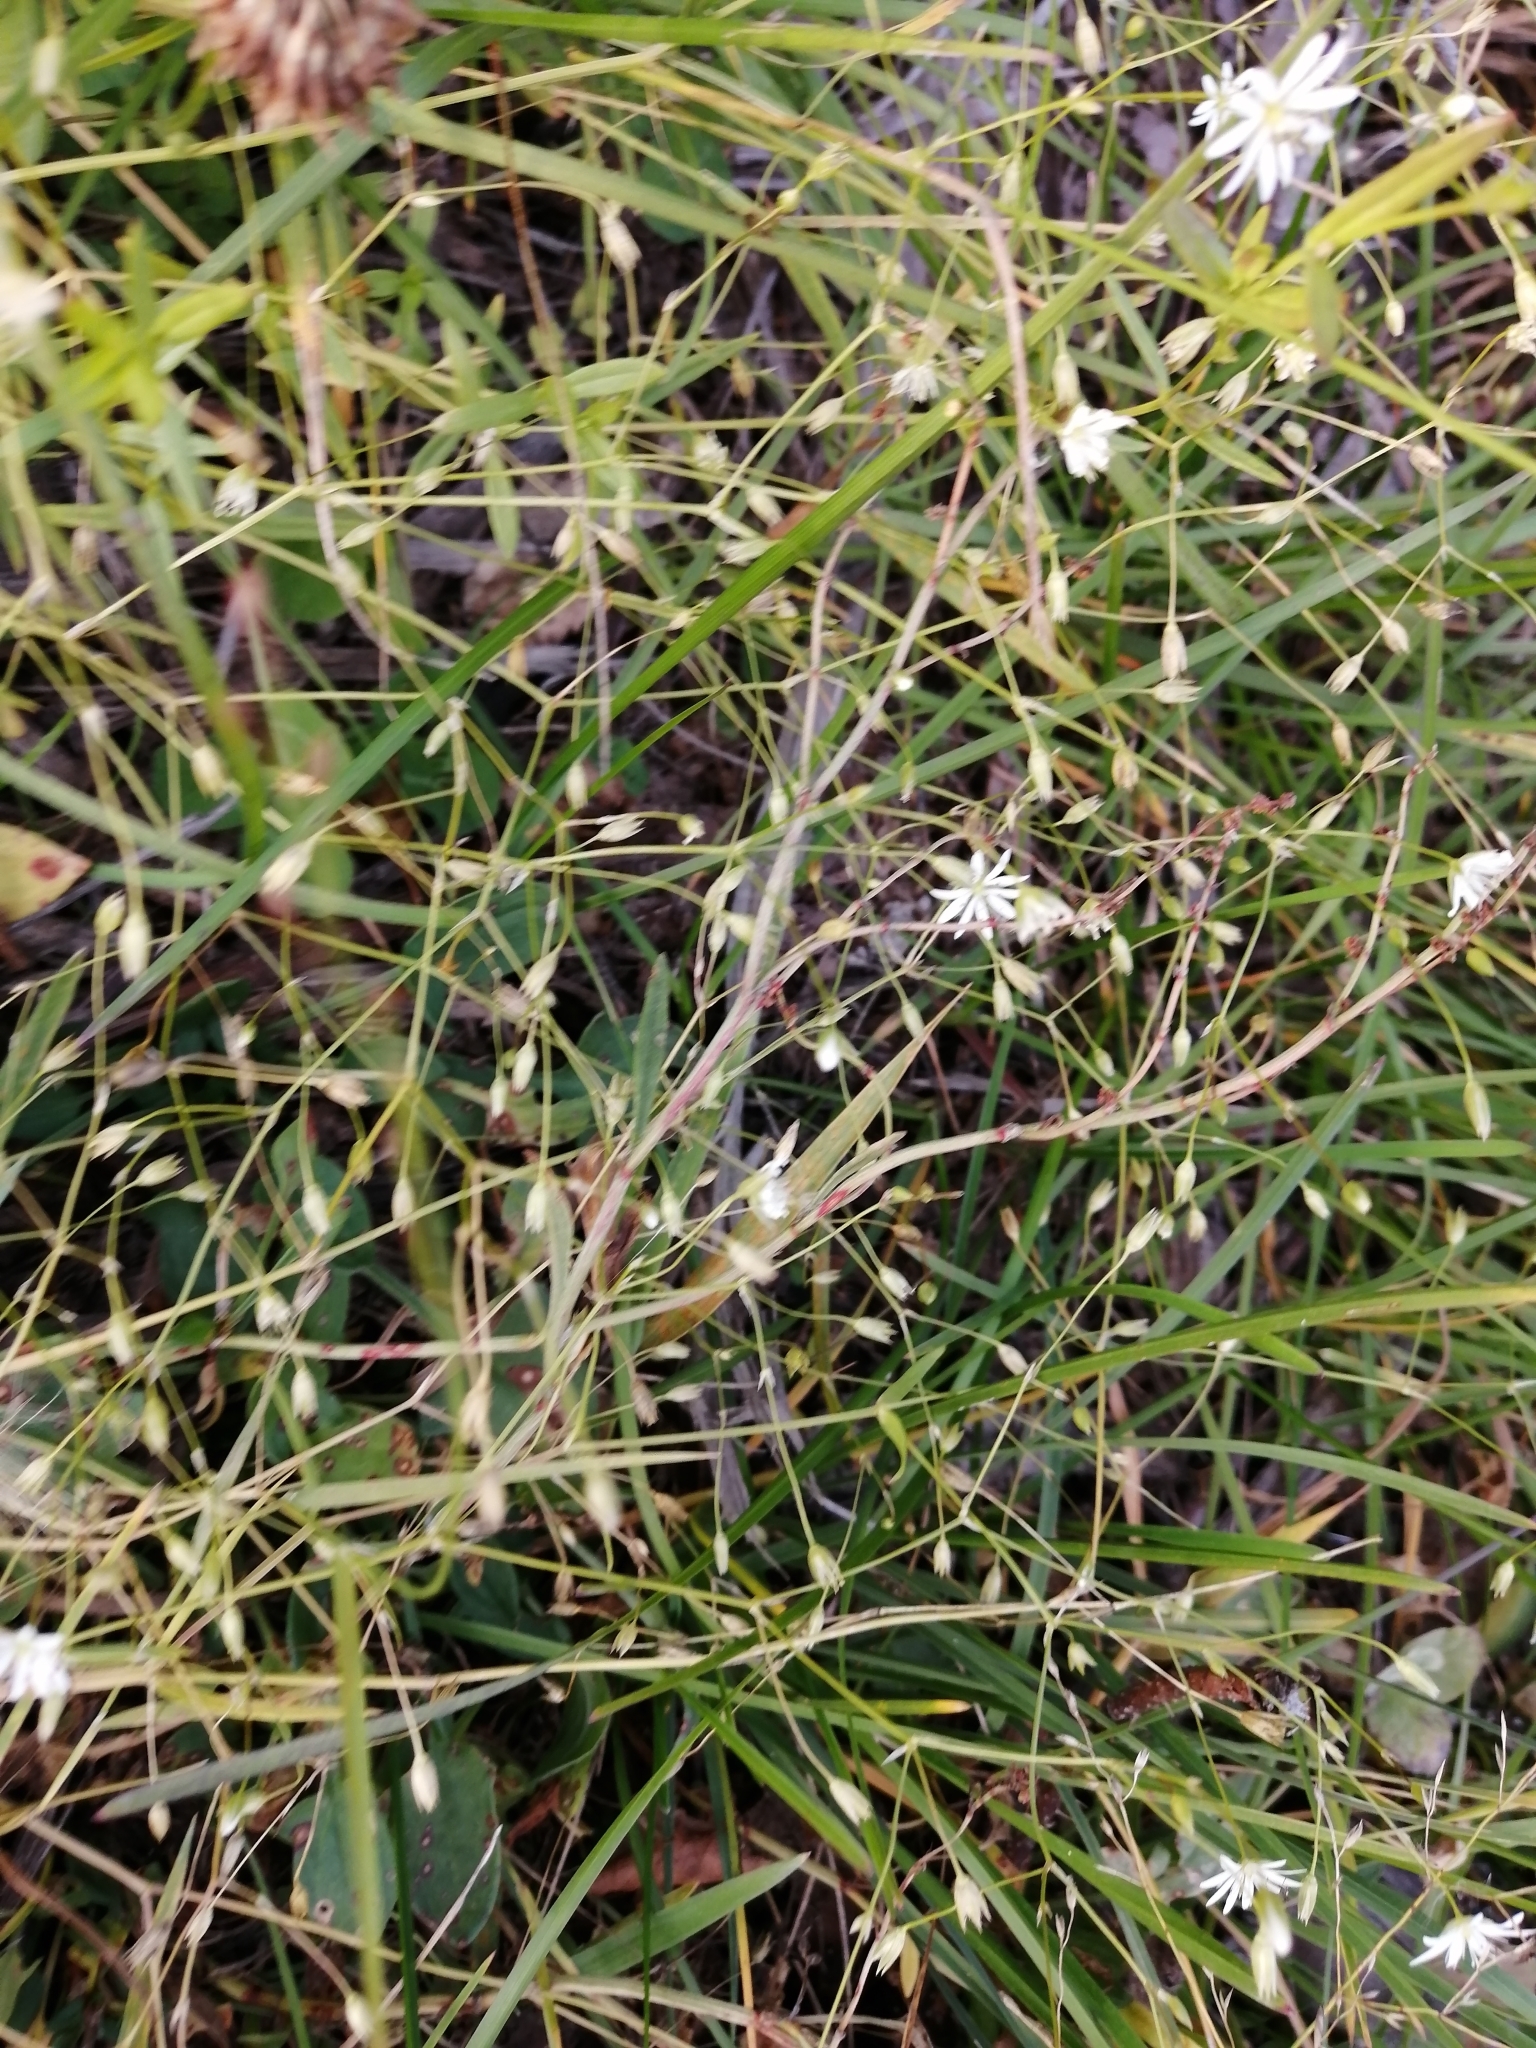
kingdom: Plantae
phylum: Tracheophyta
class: Magnoliopsida
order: Caryophyllales
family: Caryophyllaceae
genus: Stellaria
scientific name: Stellaria graminea
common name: Grass-like starwort
